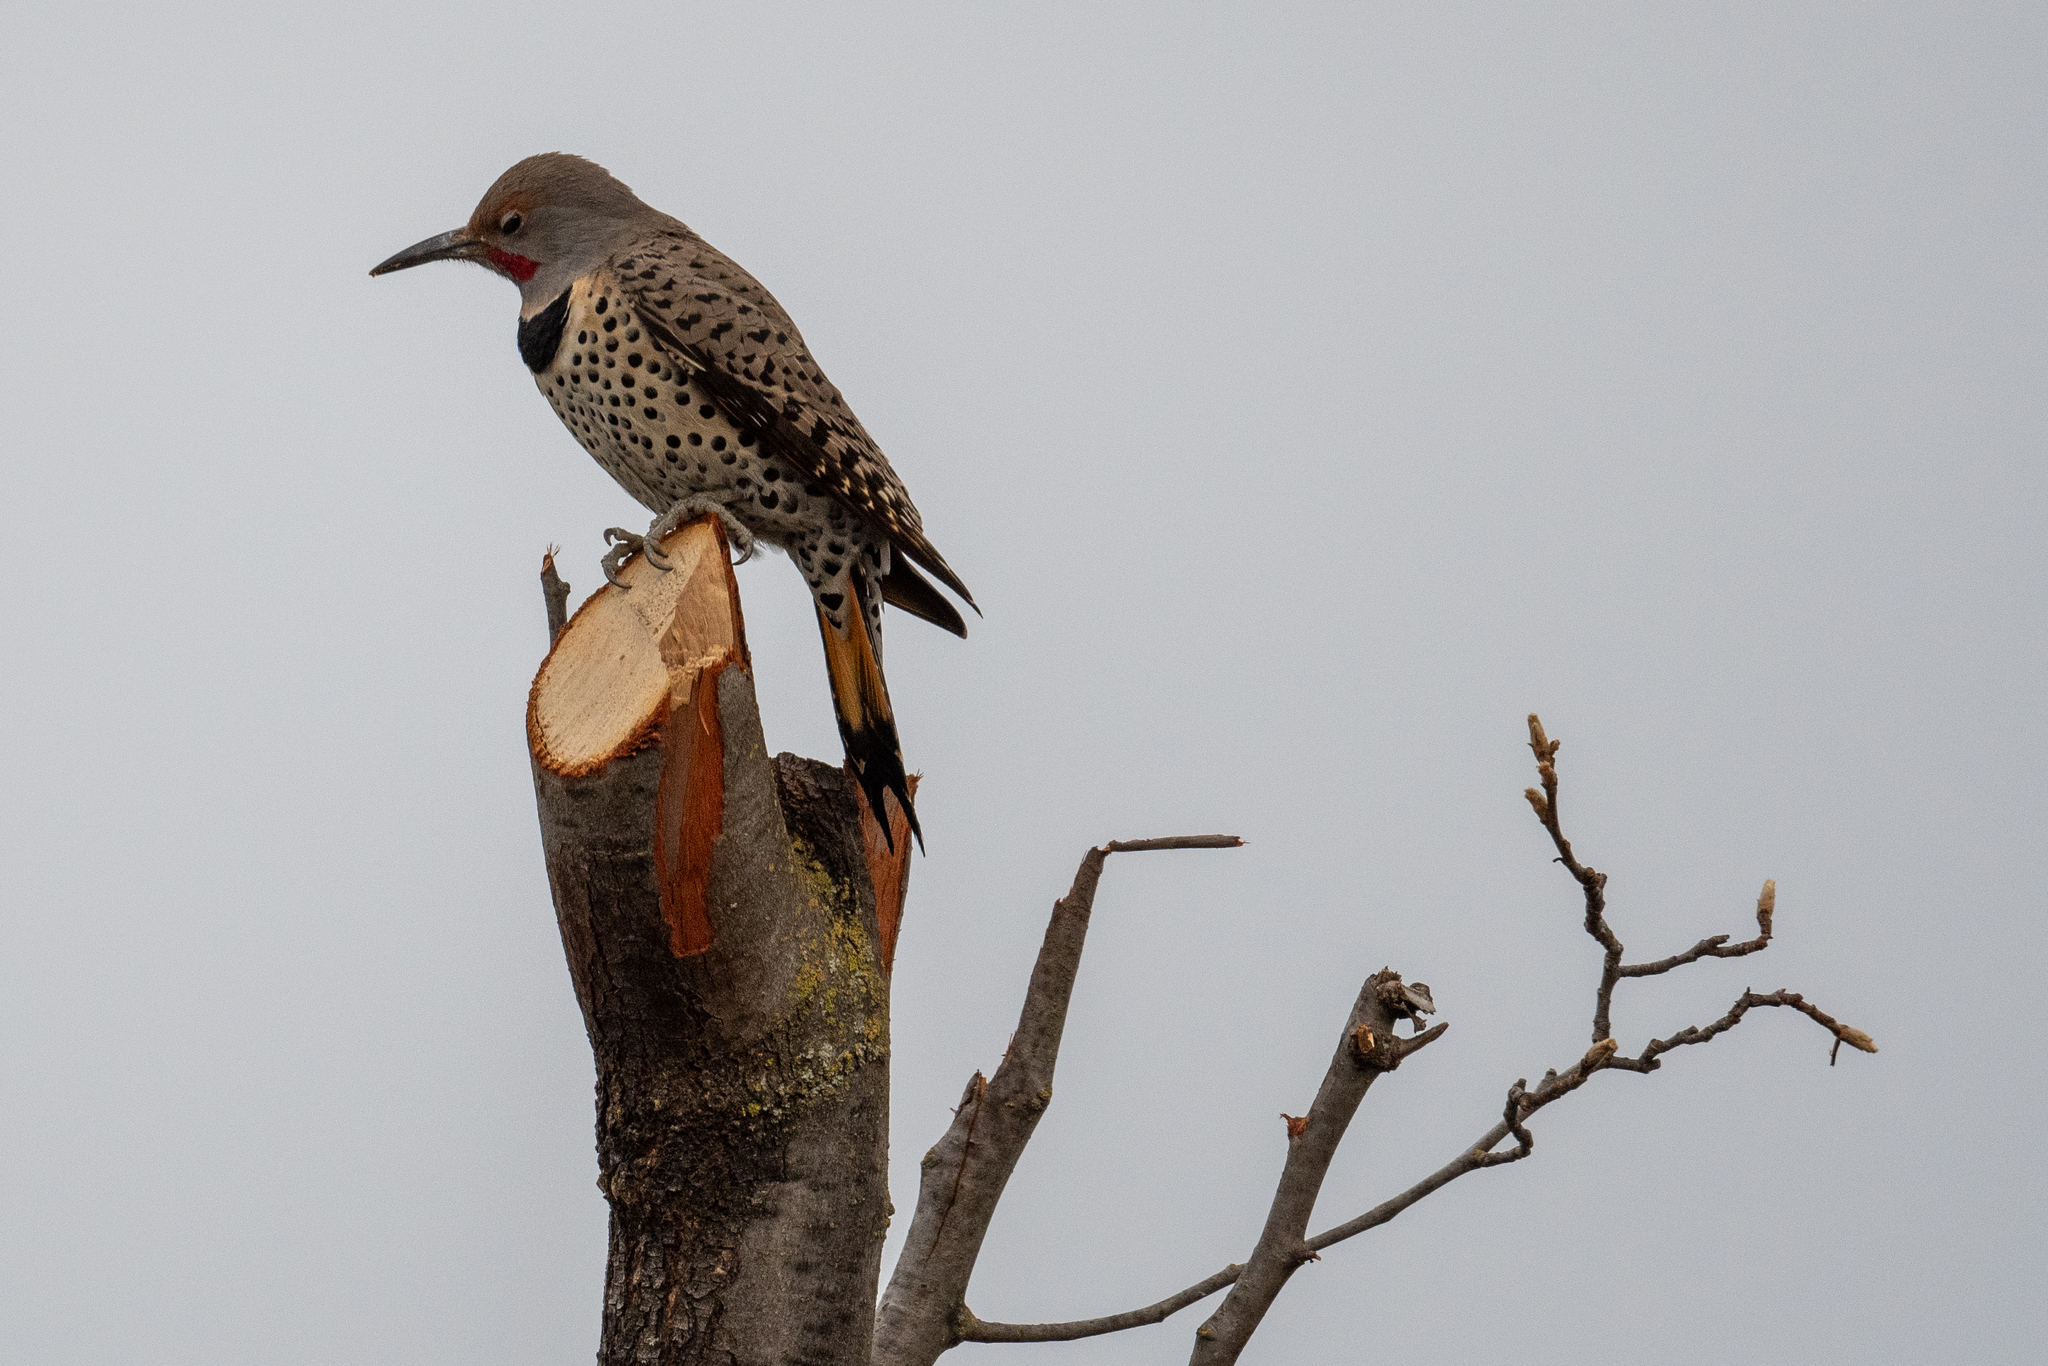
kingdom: Animalia
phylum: Chordata
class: Aves
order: Piciformes
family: Picidae
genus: Colaptes
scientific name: Colaptes auratus
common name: Northern flicker
